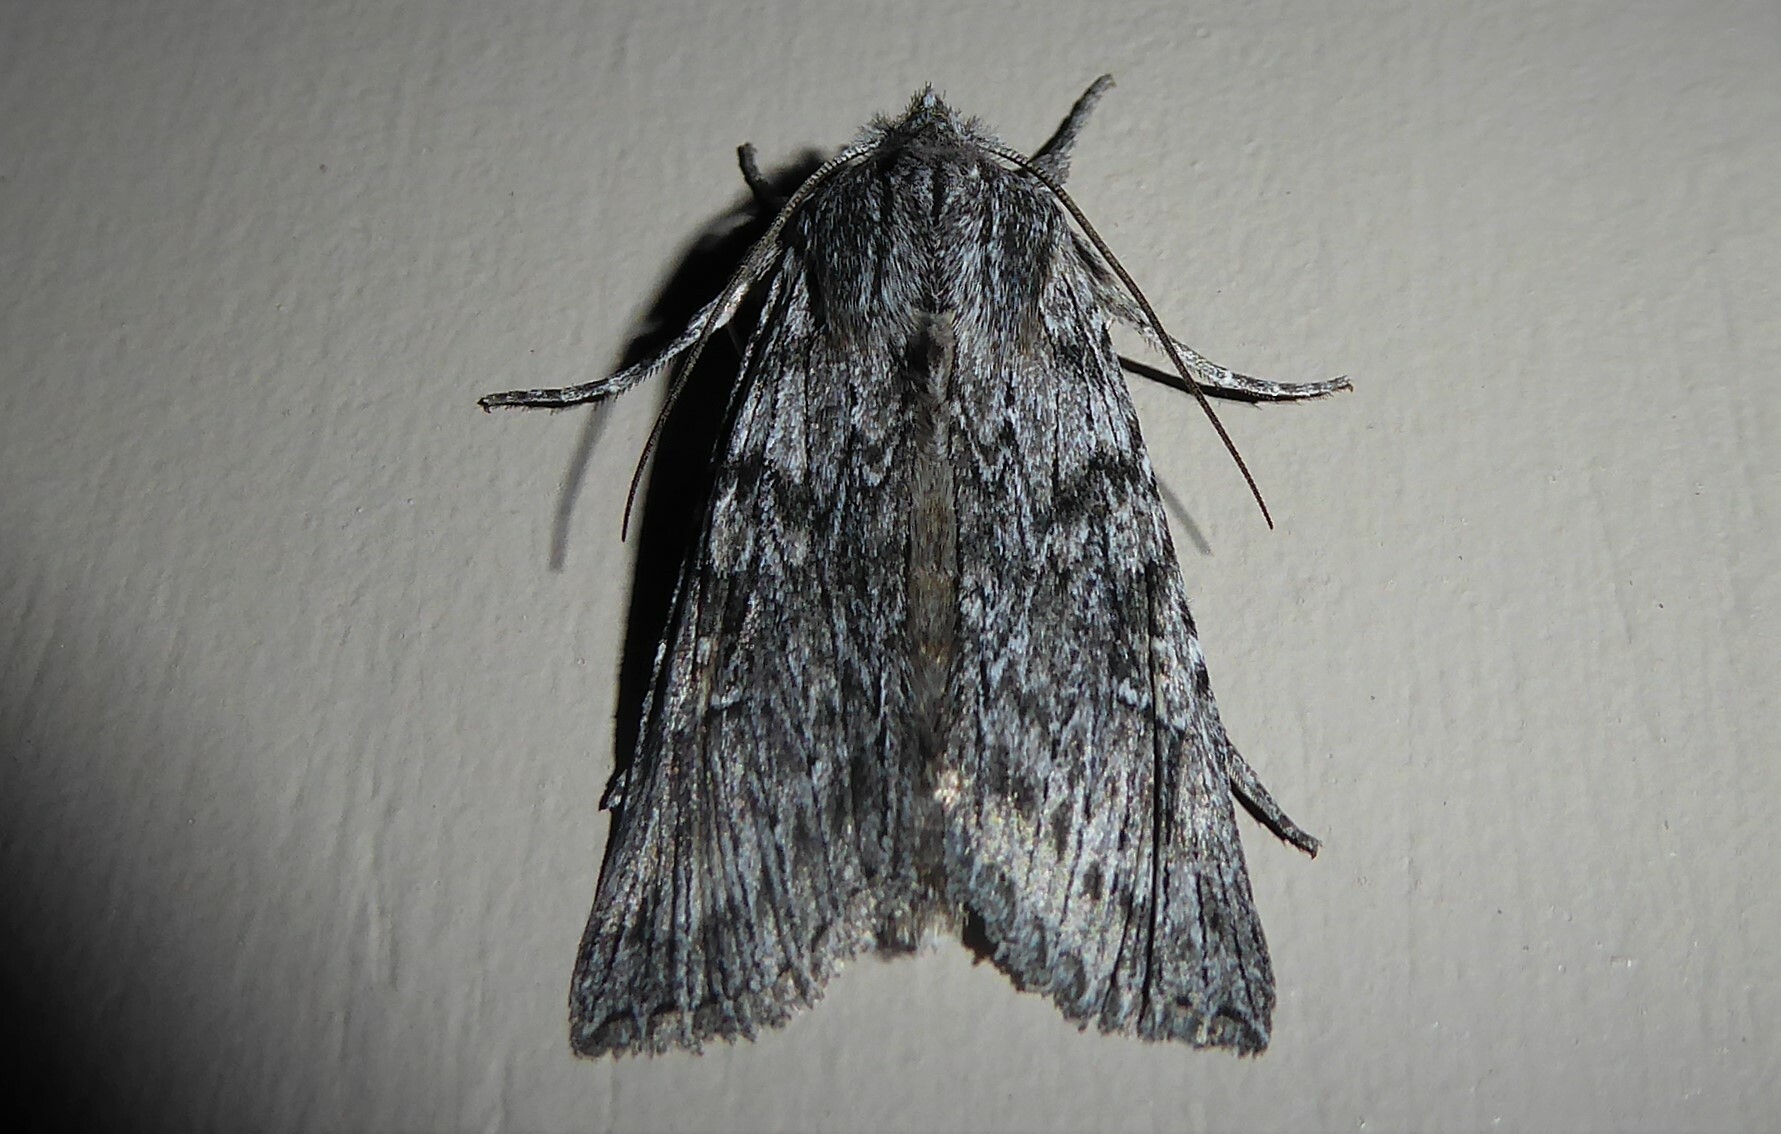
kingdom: Animalia
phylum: Arthropoda
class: Insecta
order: Lepidoptera
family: Noctuidae
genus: Physetica
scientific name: Physetica phricias
